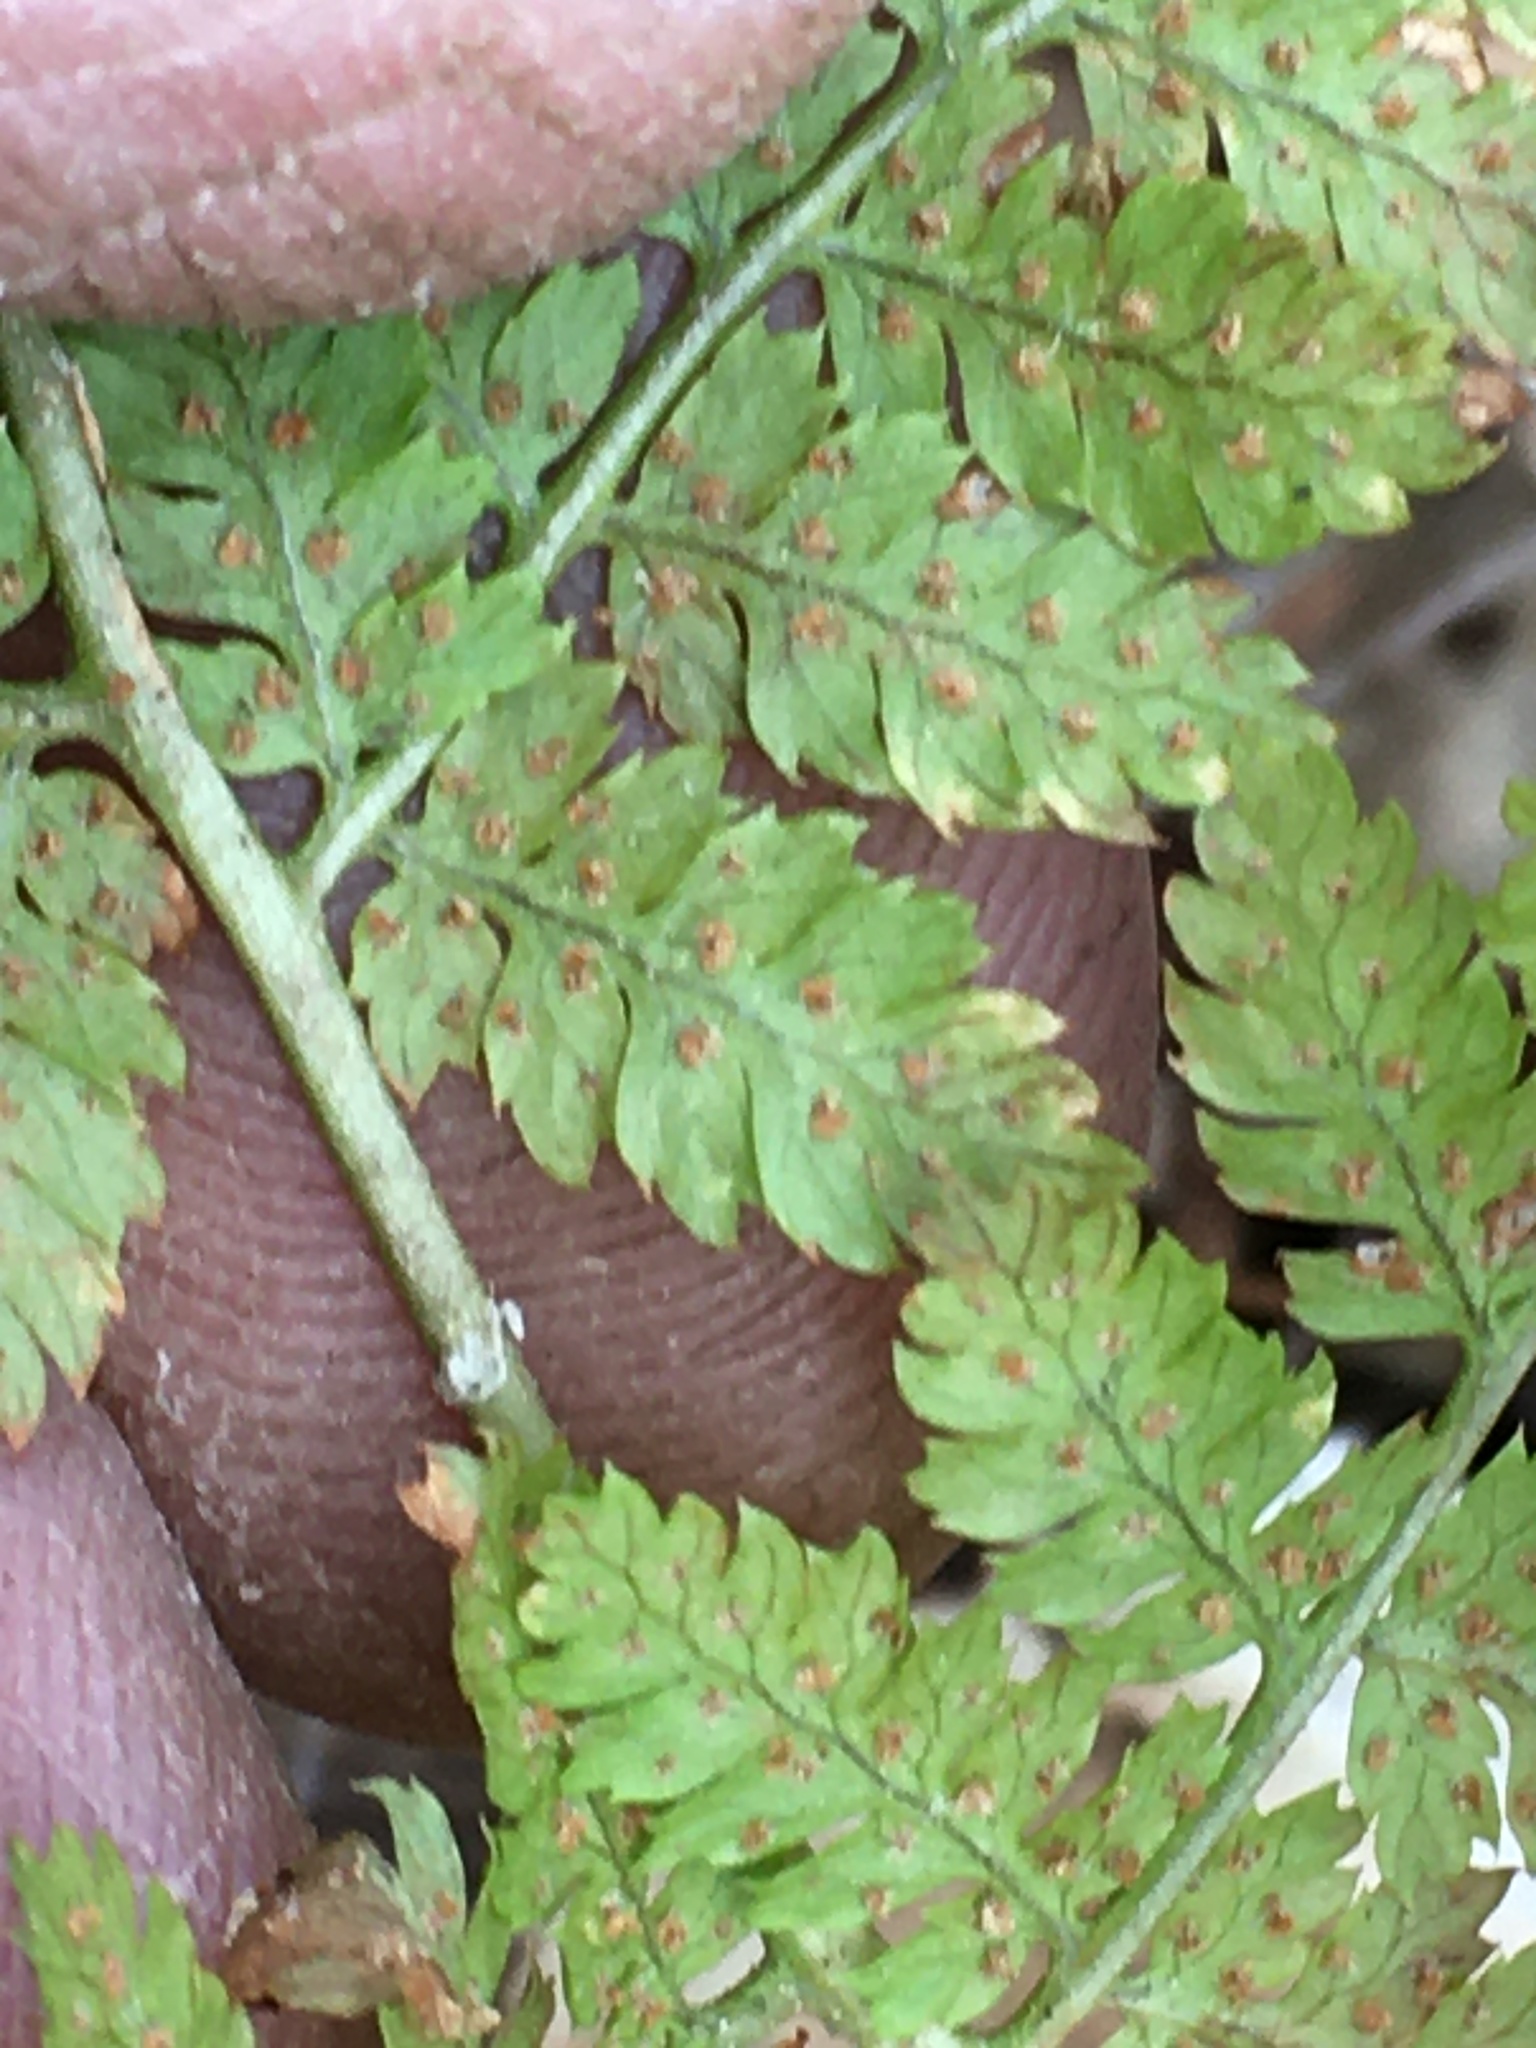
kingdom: Plantae
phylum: Tracheophyta
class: Polypodiopsida
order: Polypodiales
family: Dryopteridaceae
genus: Dryopteris
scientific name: Dryopteris intermedia
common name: Evergreen wood fern
